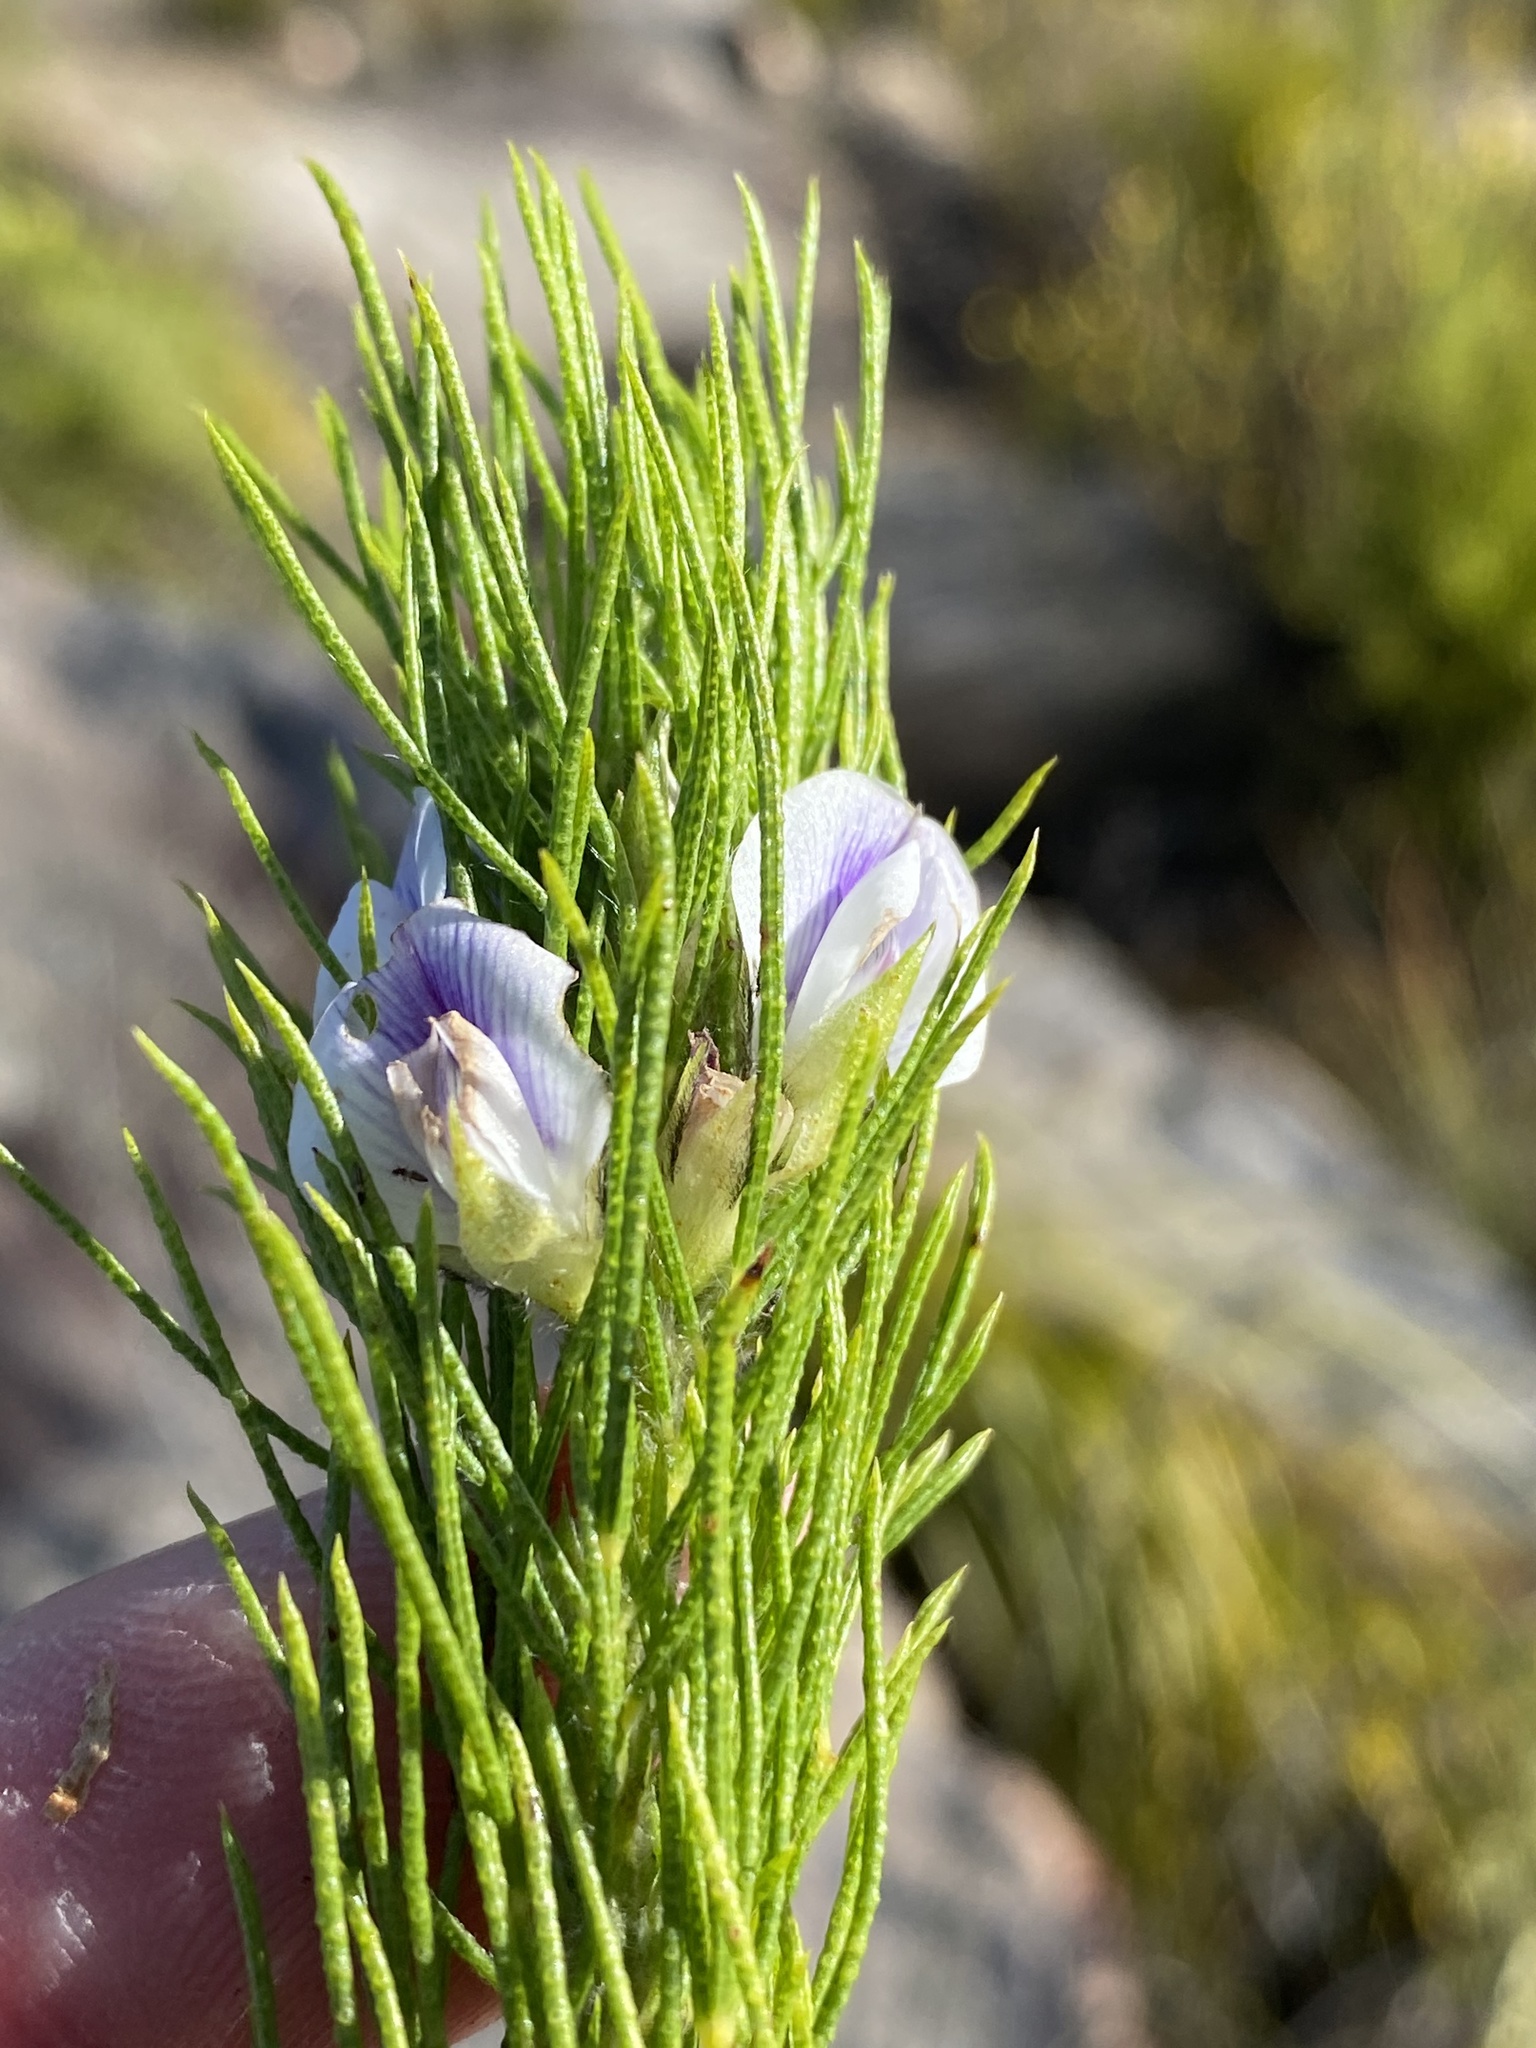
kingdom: Plantae
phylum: Tracheophyta
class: Magnoliopsida
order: Fabales
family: Fabaceae
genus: Psoralea
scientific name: Psoralea floccosa
